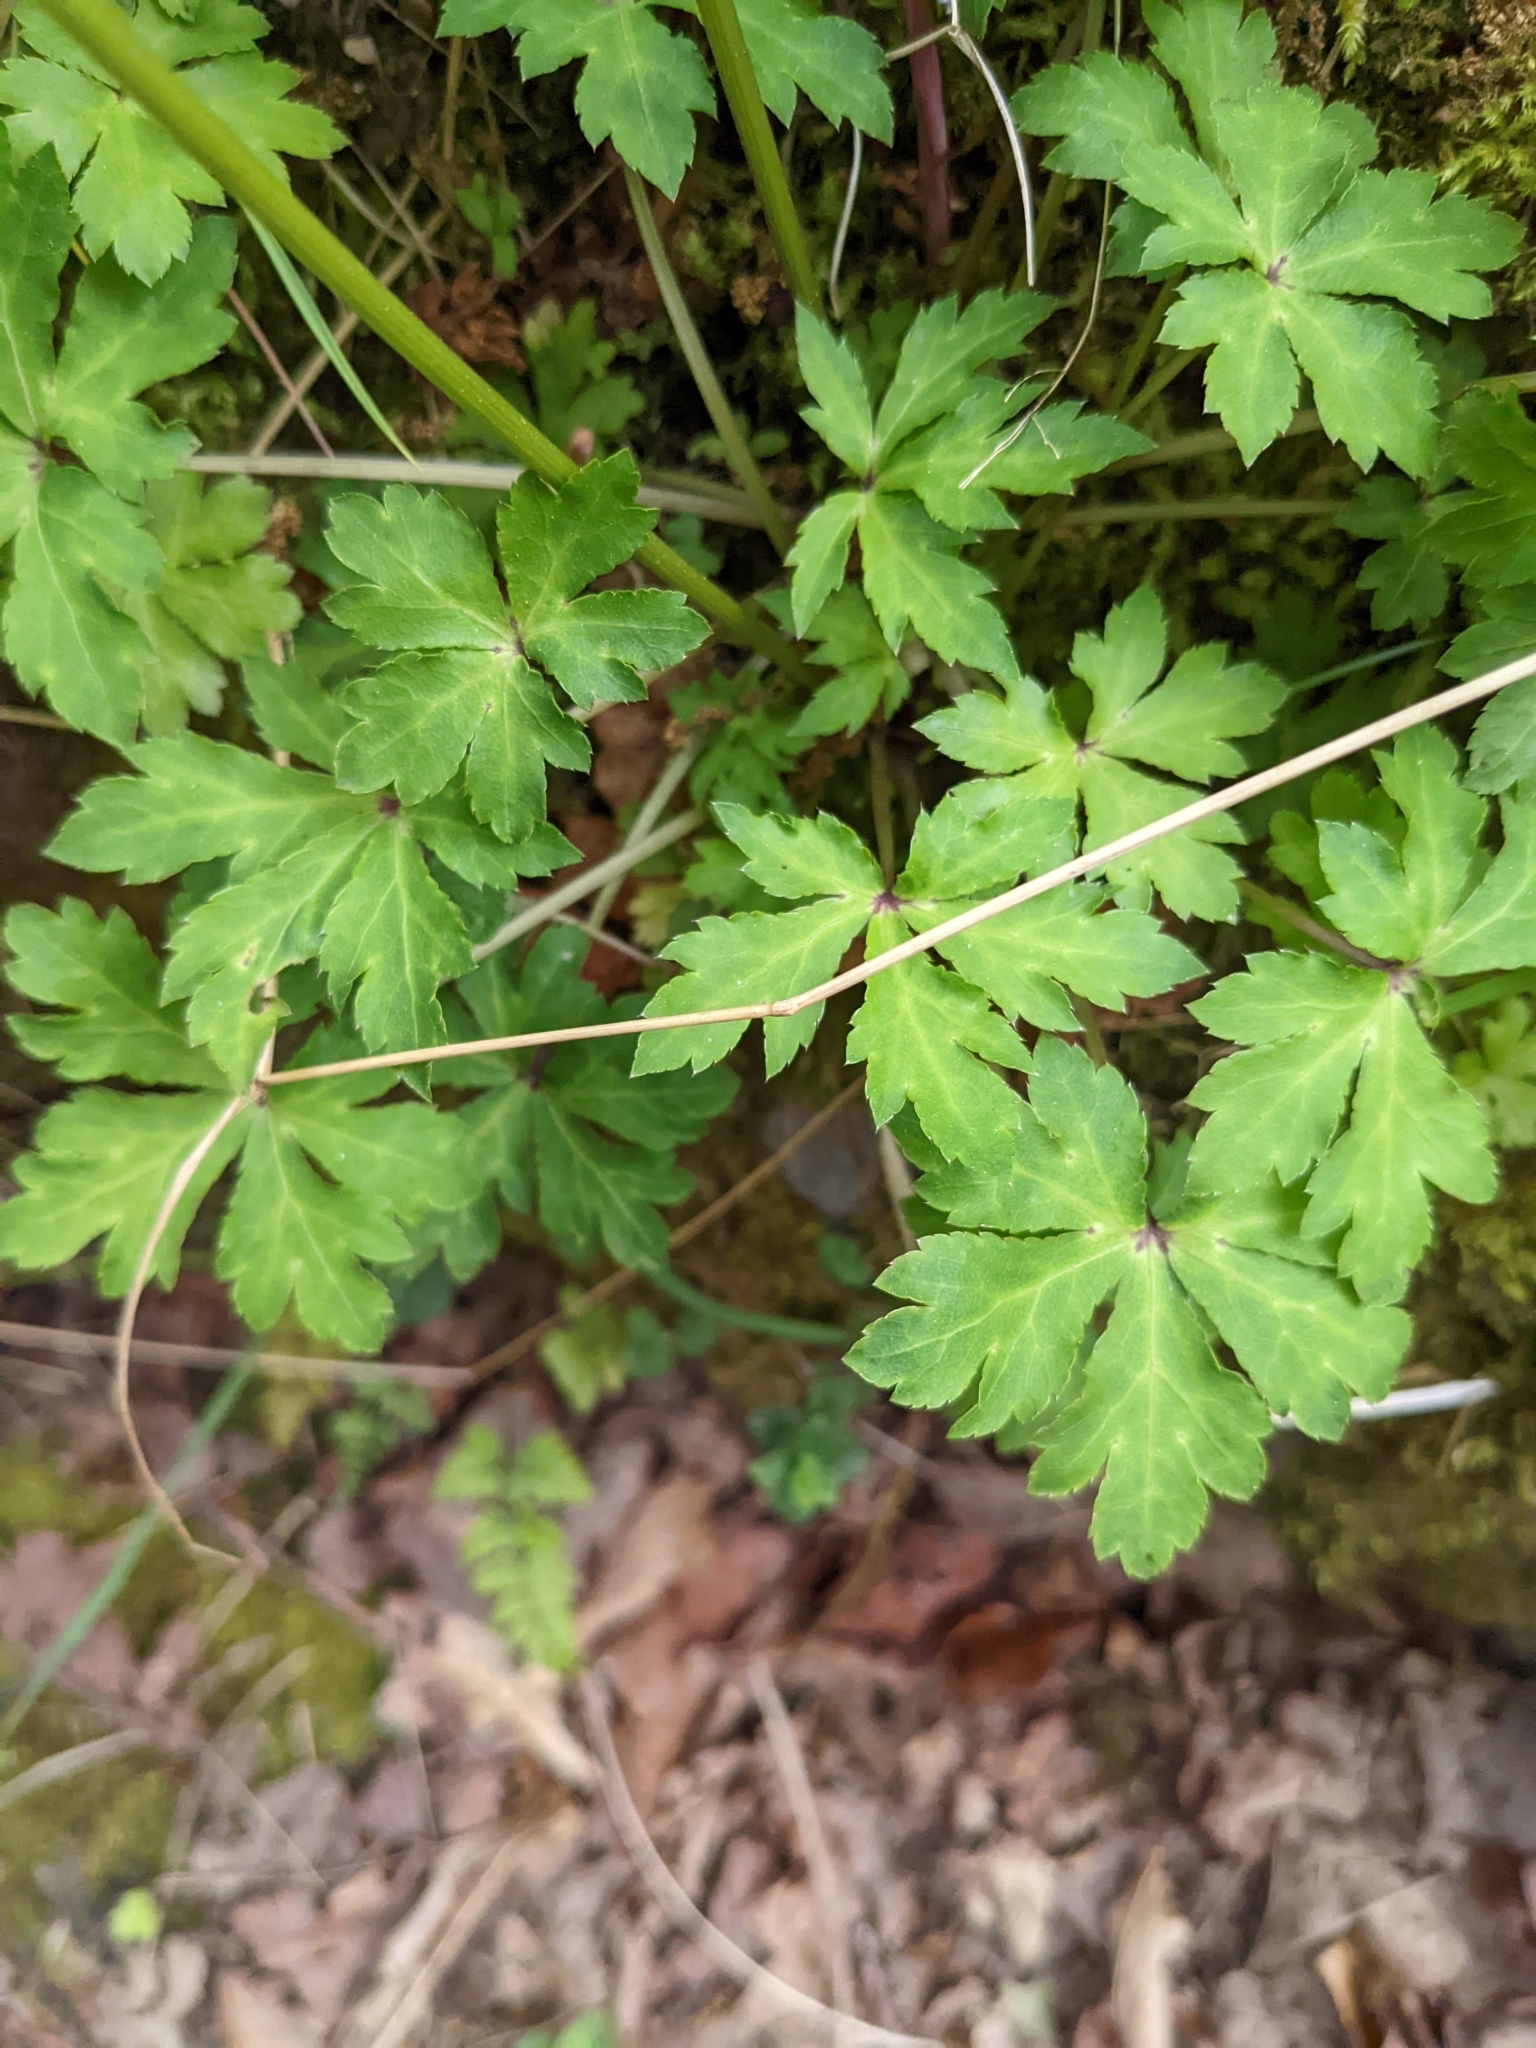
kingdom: Plantae
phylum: Tracheophyta
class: Magnoliopsida
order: Apiales
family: Apiaceae
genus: Sanicula
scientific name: Sanicula europaea
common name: Sanicle
